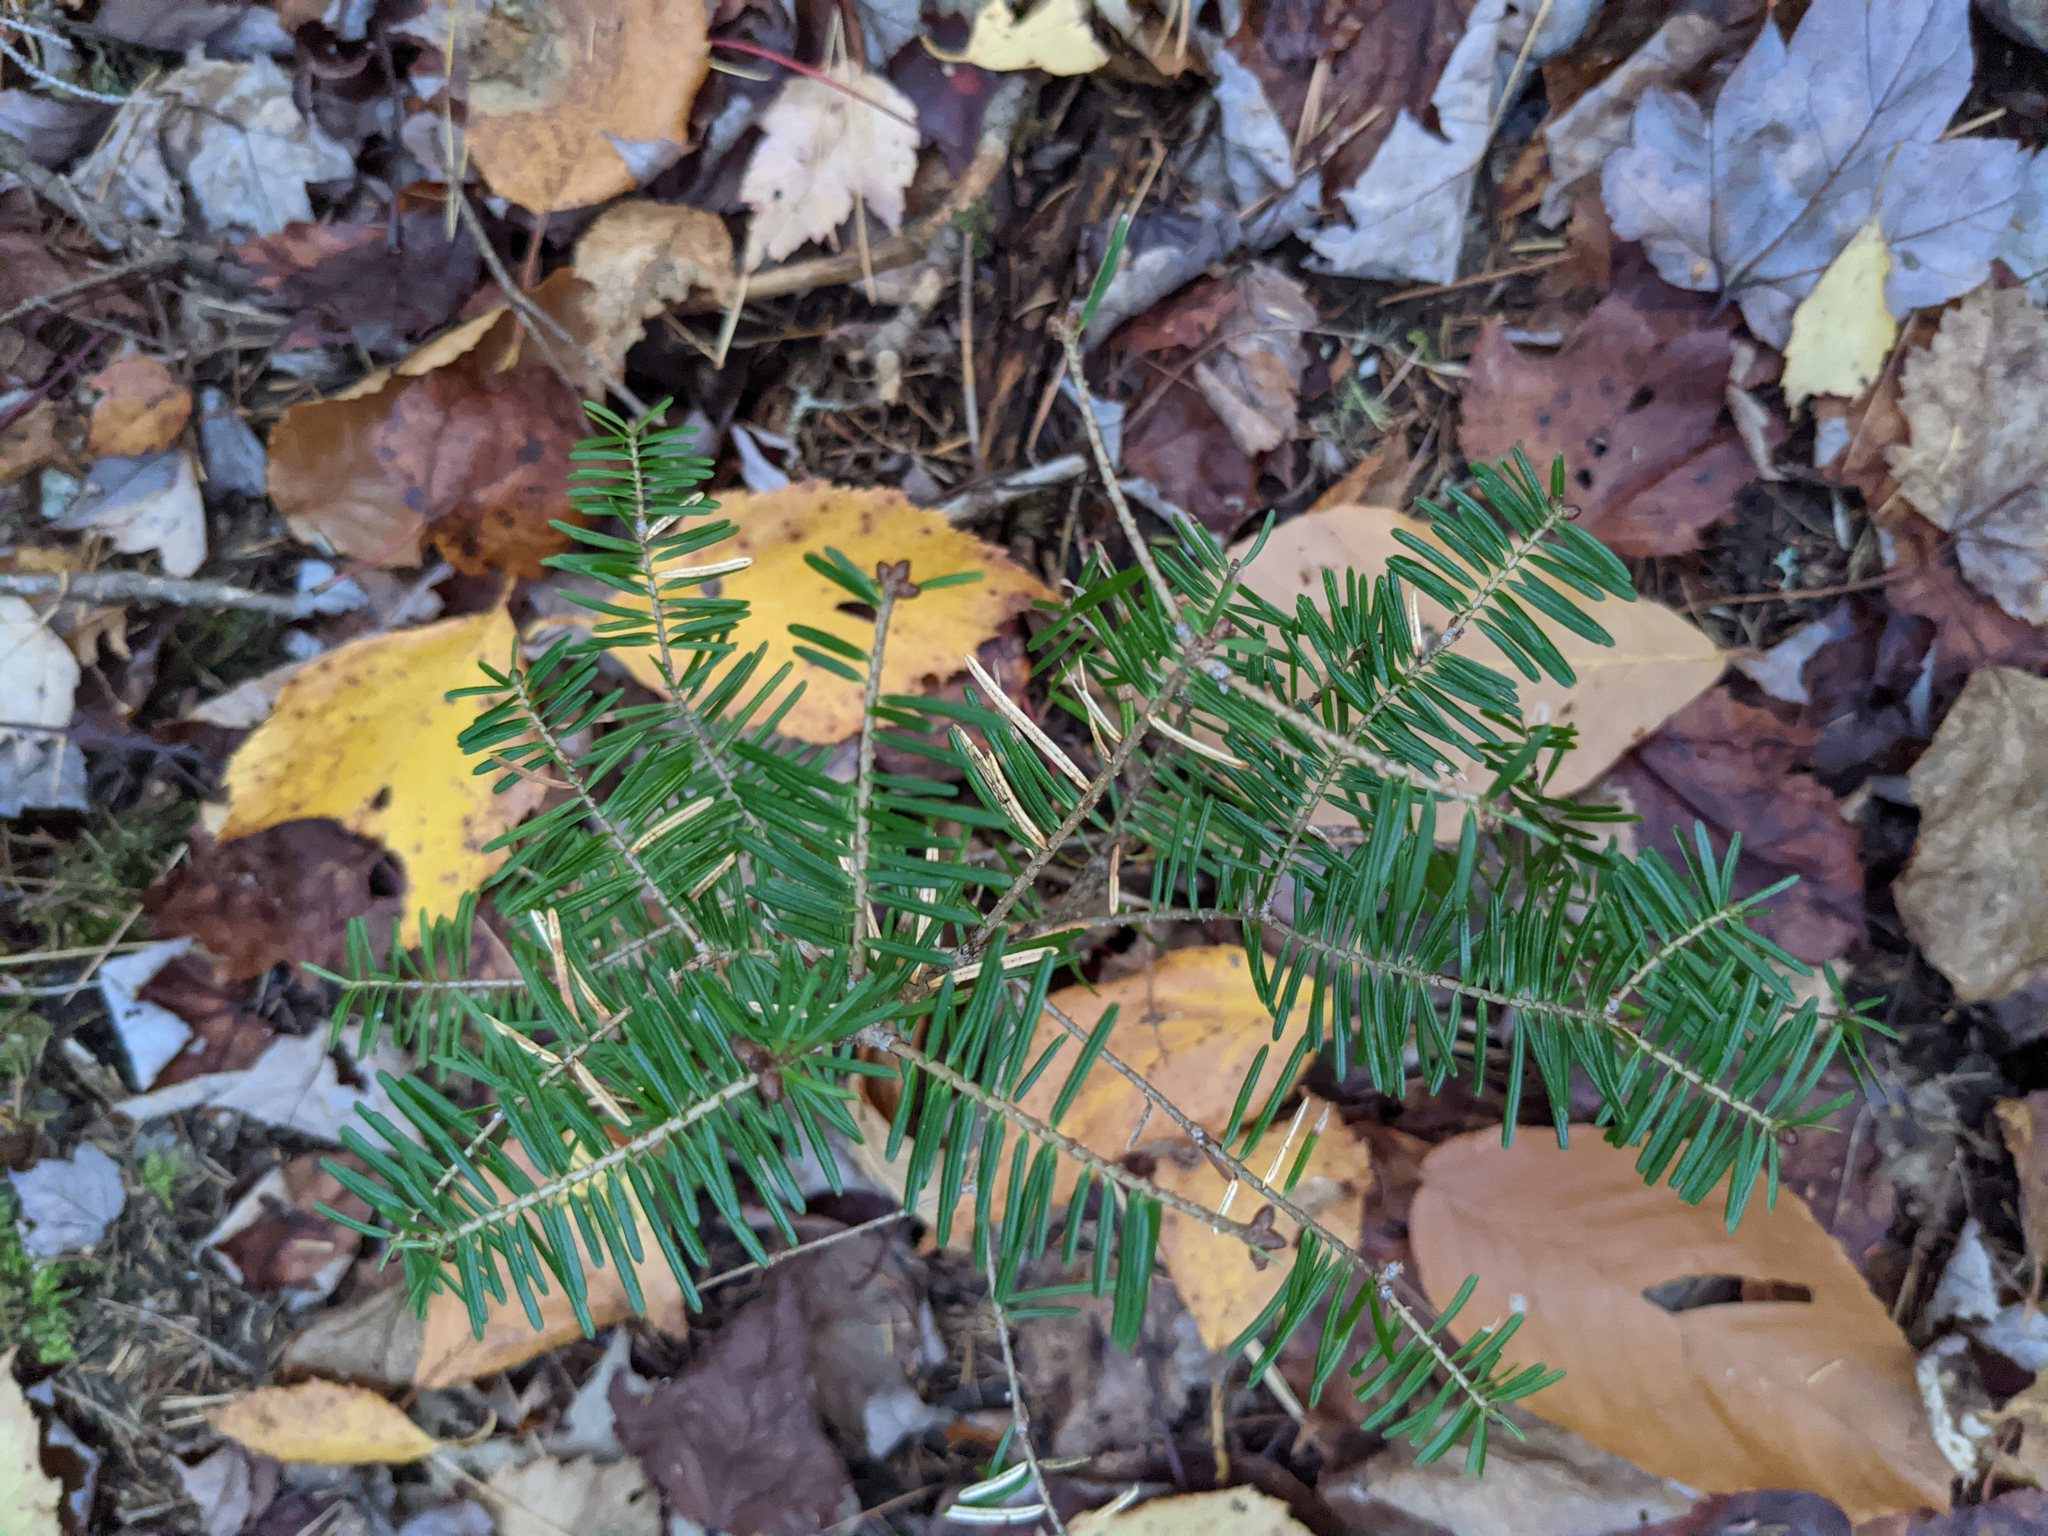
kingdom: Plantae
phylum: Tracheophyta
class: Pinopsida
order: Pinales
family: Pinaceae
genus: Abies
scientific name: Abies balsamea
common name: Balsam fir
